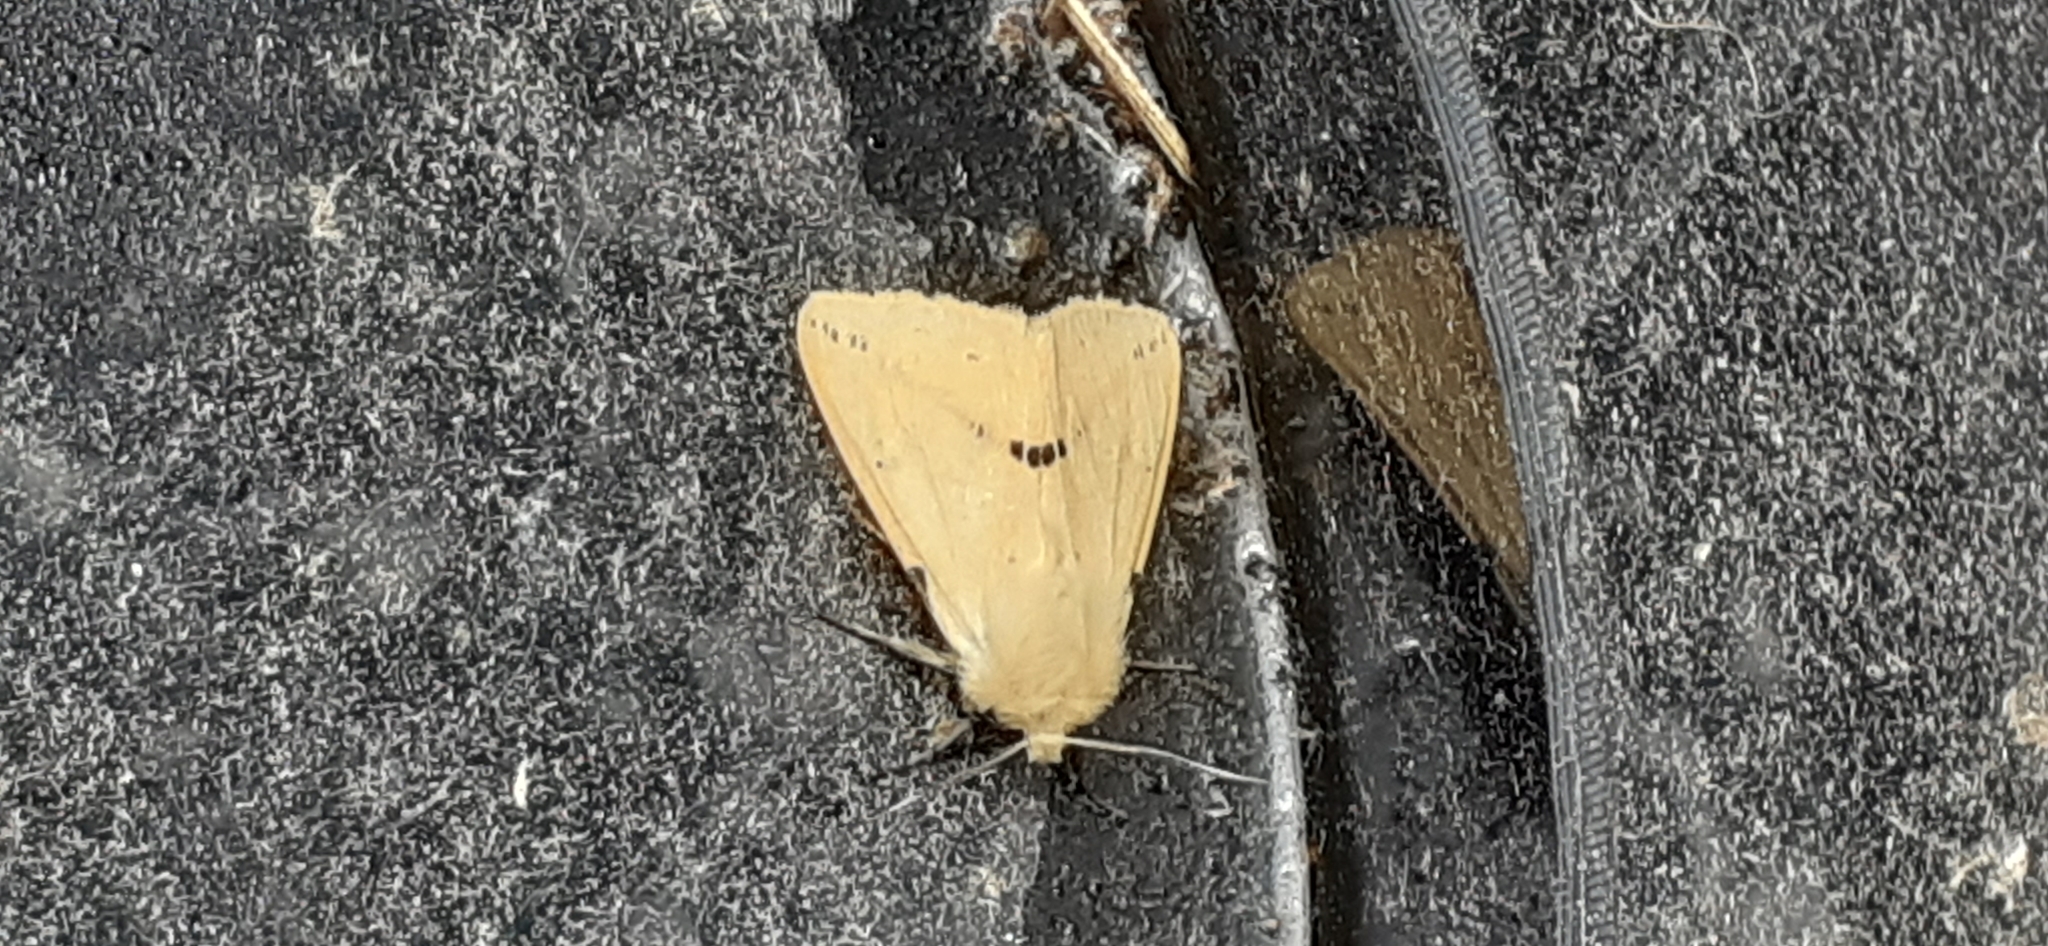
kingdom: Animalia
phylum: Arthropoda
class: Insecta
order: Lepidoptera
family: Erebidae
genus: Spilarctia
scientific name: Spilarctia lutea
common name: Buff ermine
